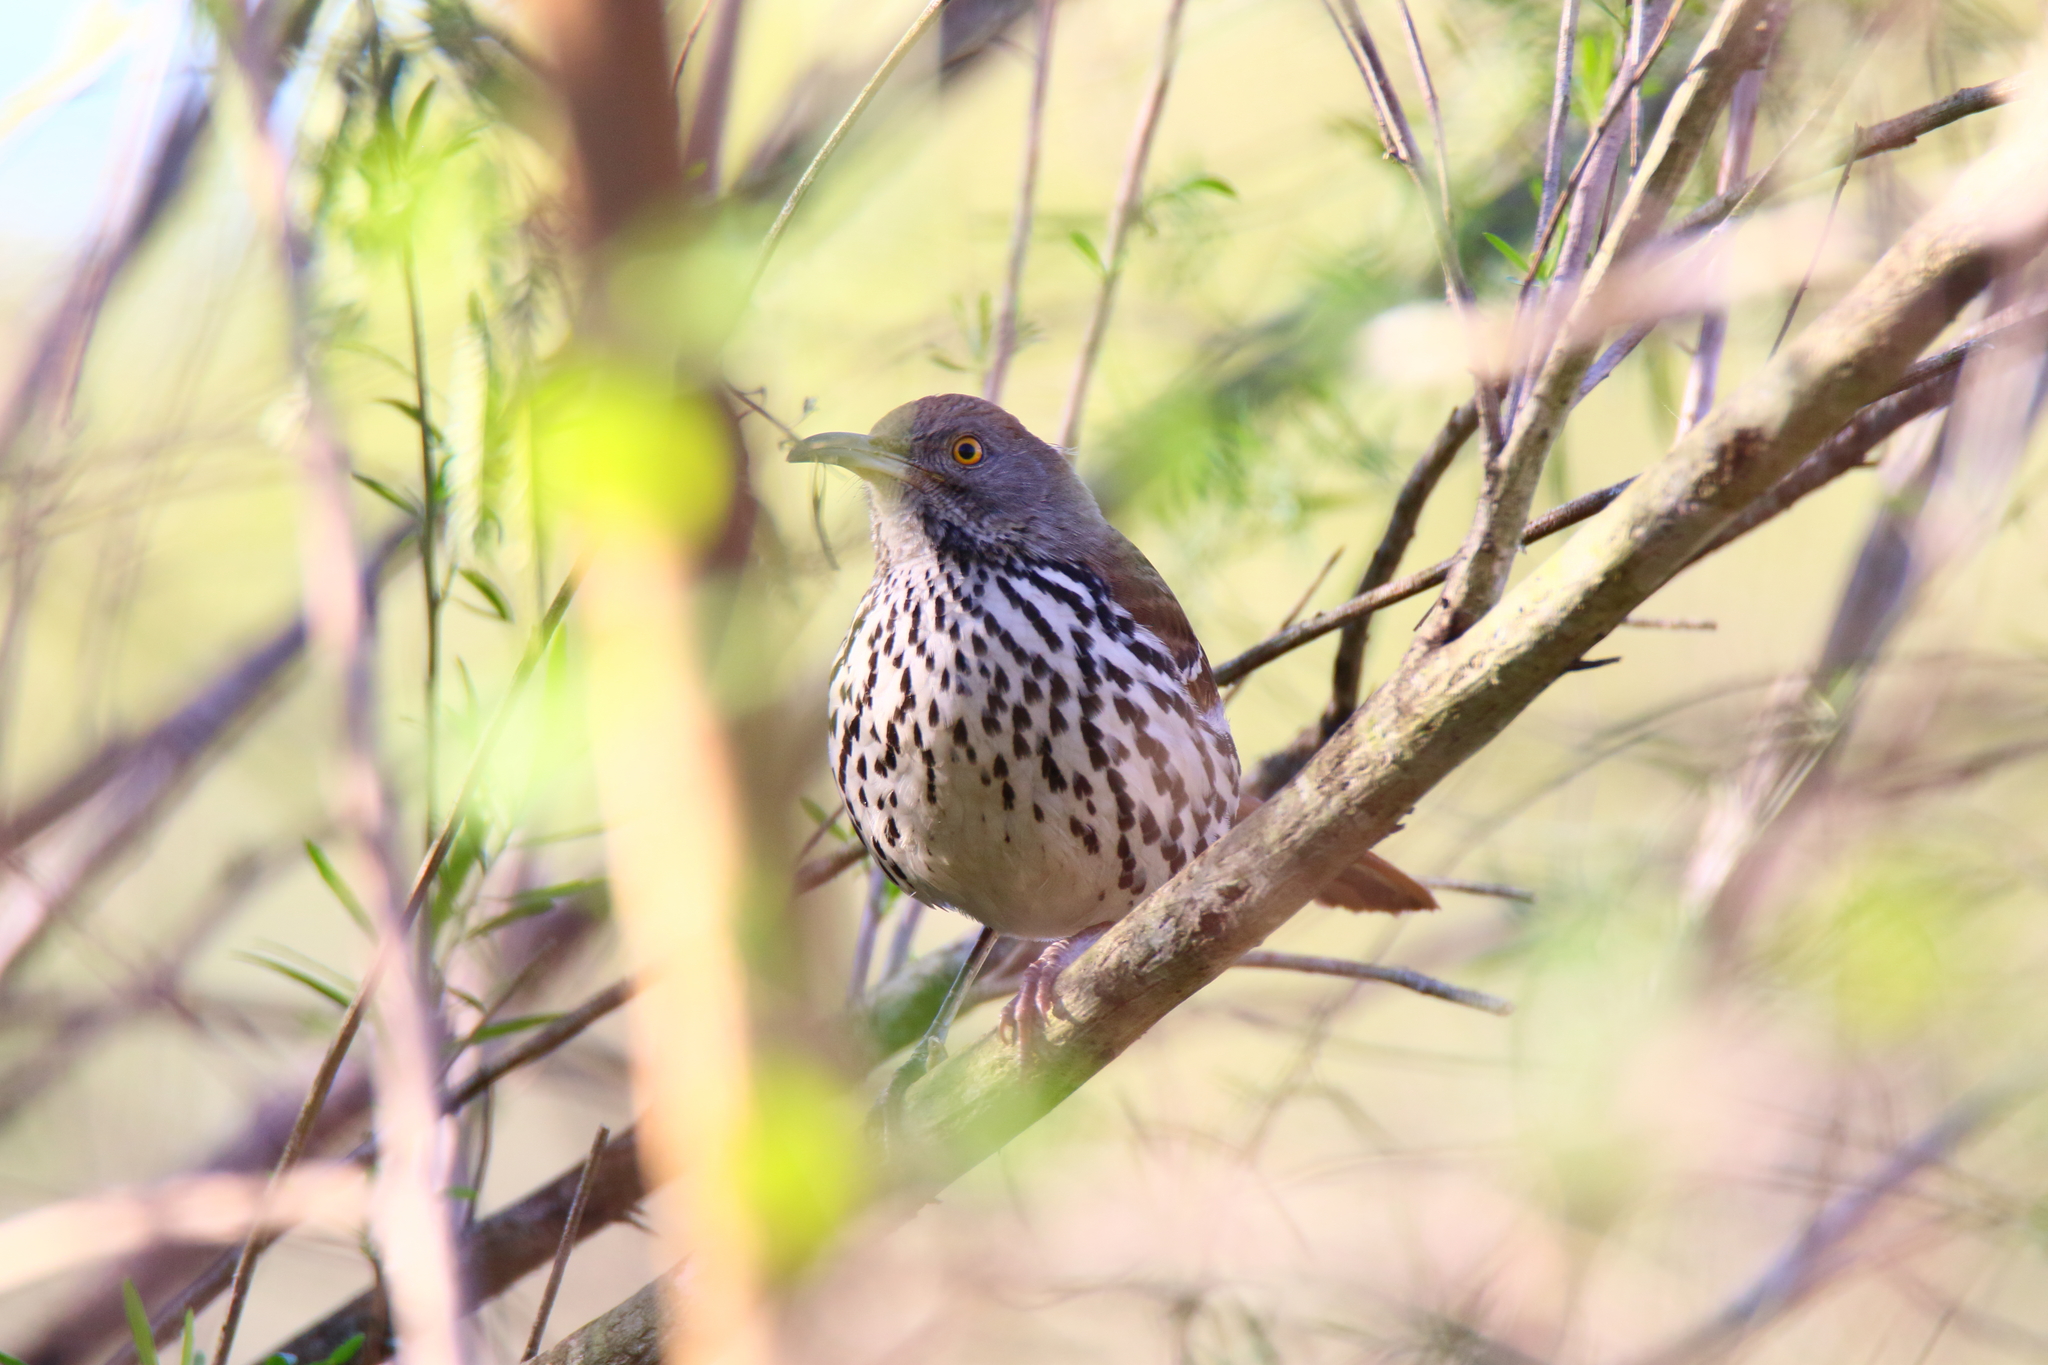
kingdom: Animalia
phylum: Chordata
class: Aves
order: Passeriformes
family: Mimidae
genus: Toxostoma
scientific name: Toxostoma longirostre
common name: Long-billed thrasher
